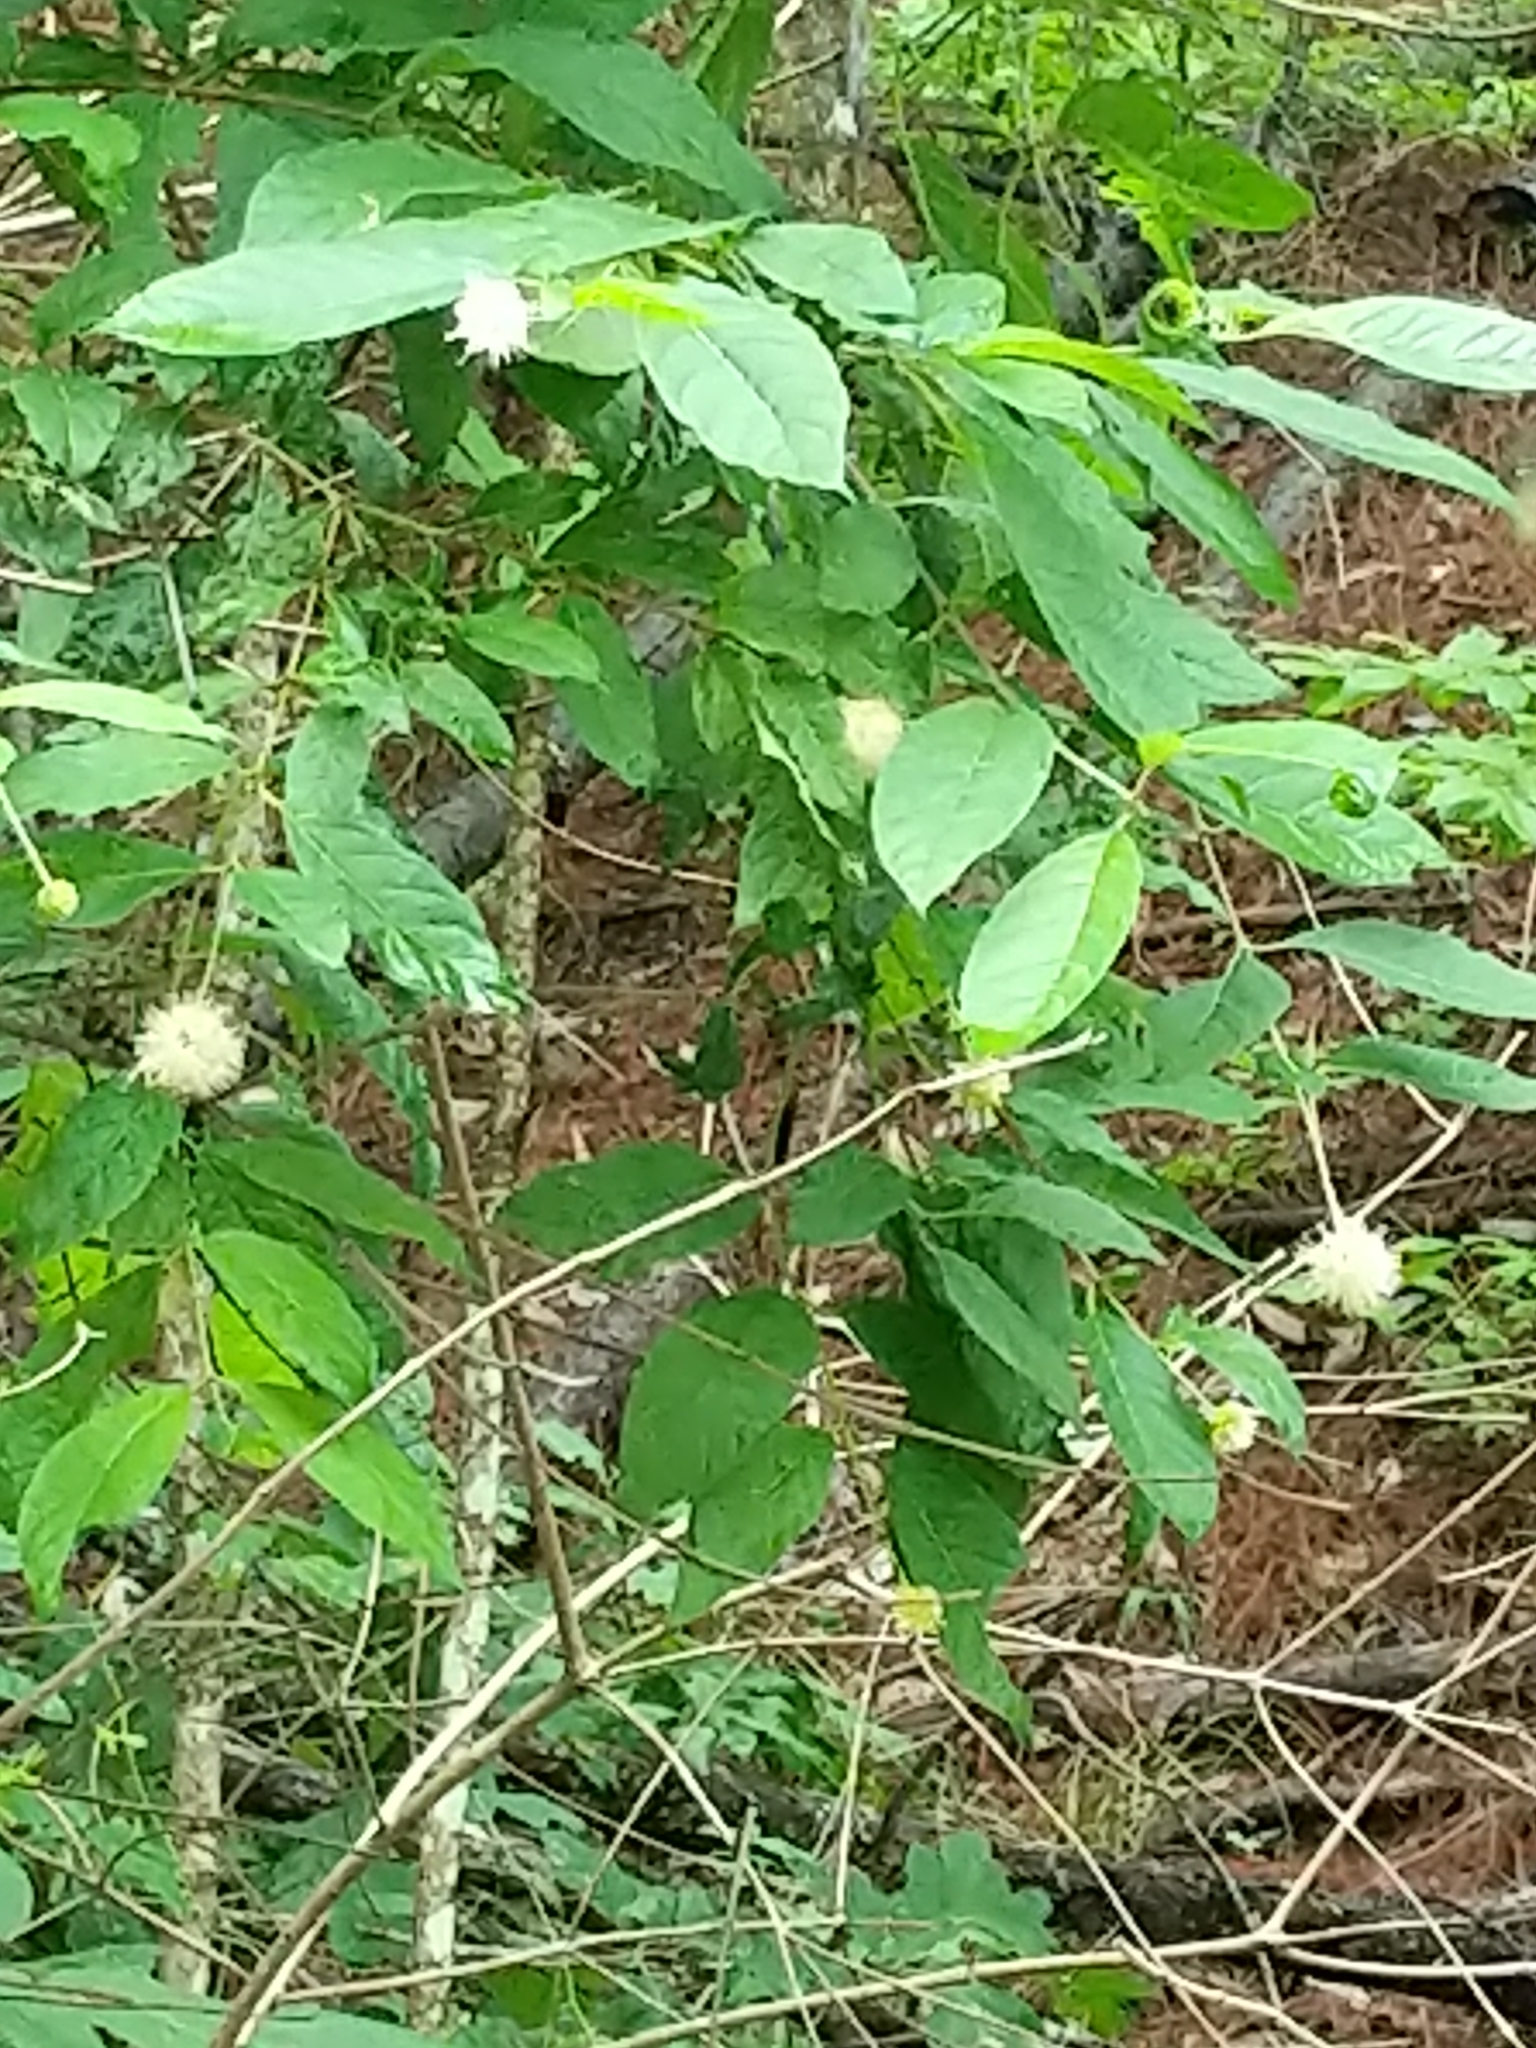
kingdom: Plantae
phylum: Tracheophyta
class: Magnoliopsida
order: Gentianales
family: Rubiaceae
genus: Cephalanthus
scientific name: Cephalanthus occidentalis
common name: Button-willow
